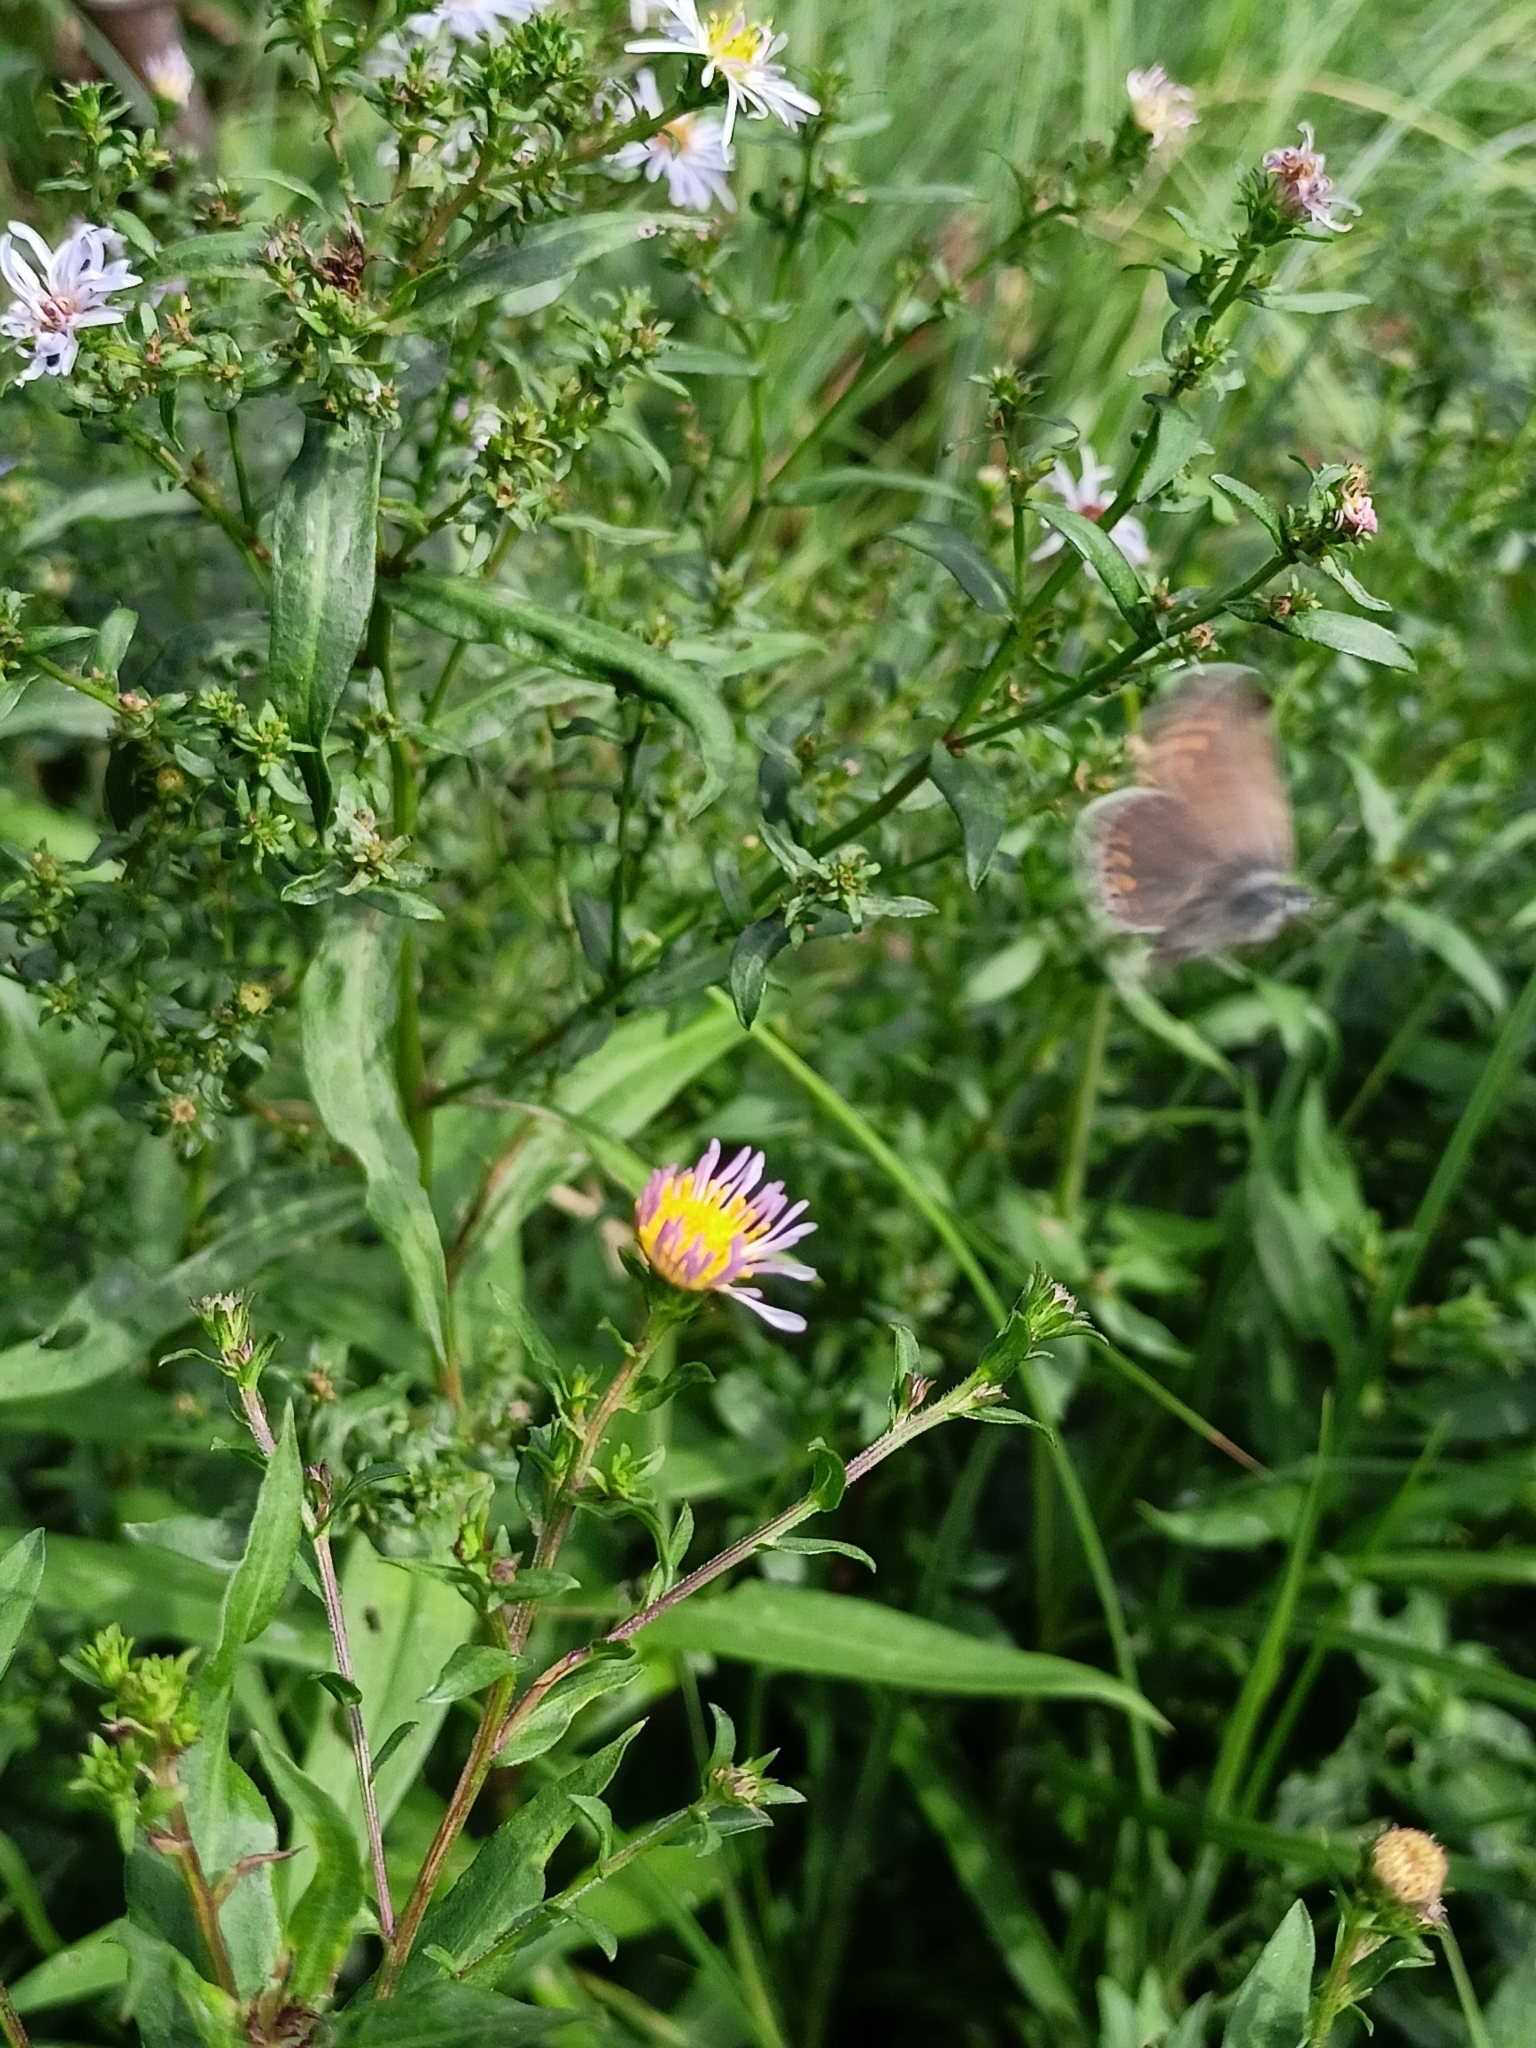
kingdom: Animalia
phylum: Arthropoda
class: Insecta
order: Lepidoptera
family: Lycaenidae
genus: Polyommatus
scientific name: Polyommatus icarus
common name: Common blue
